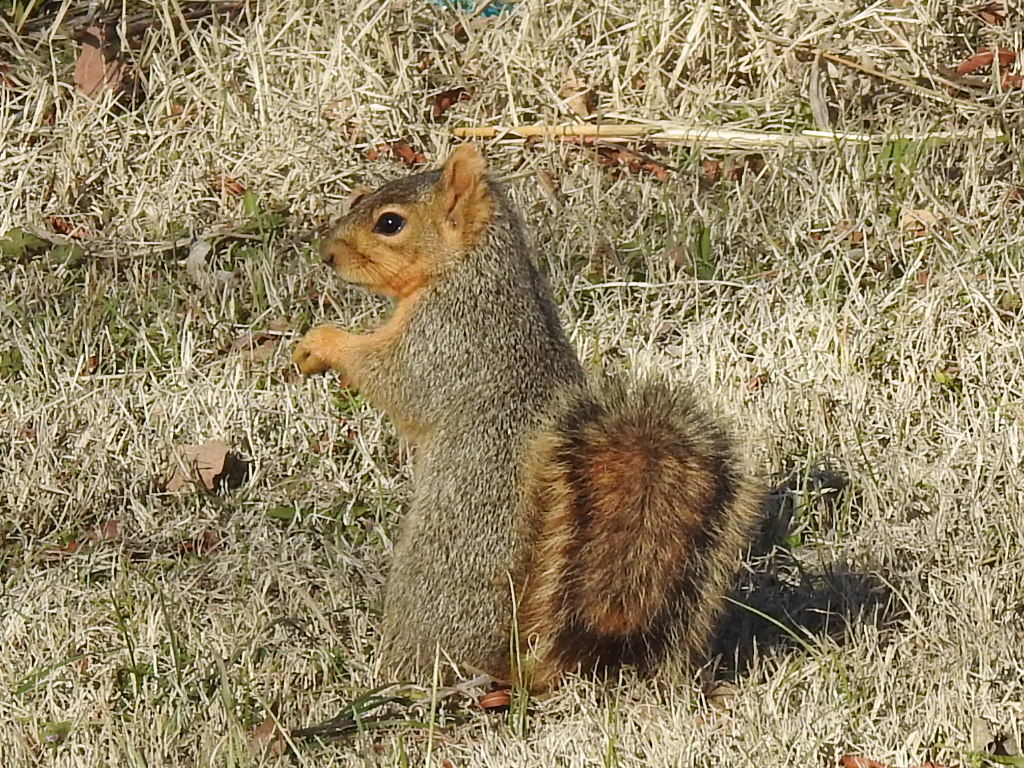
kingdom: Animalia
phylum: Chordata
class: Mammalia
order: Rodentia
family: Sciuridae
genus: Sciurus
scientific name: Sciurus niger
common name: Fox squirrel
